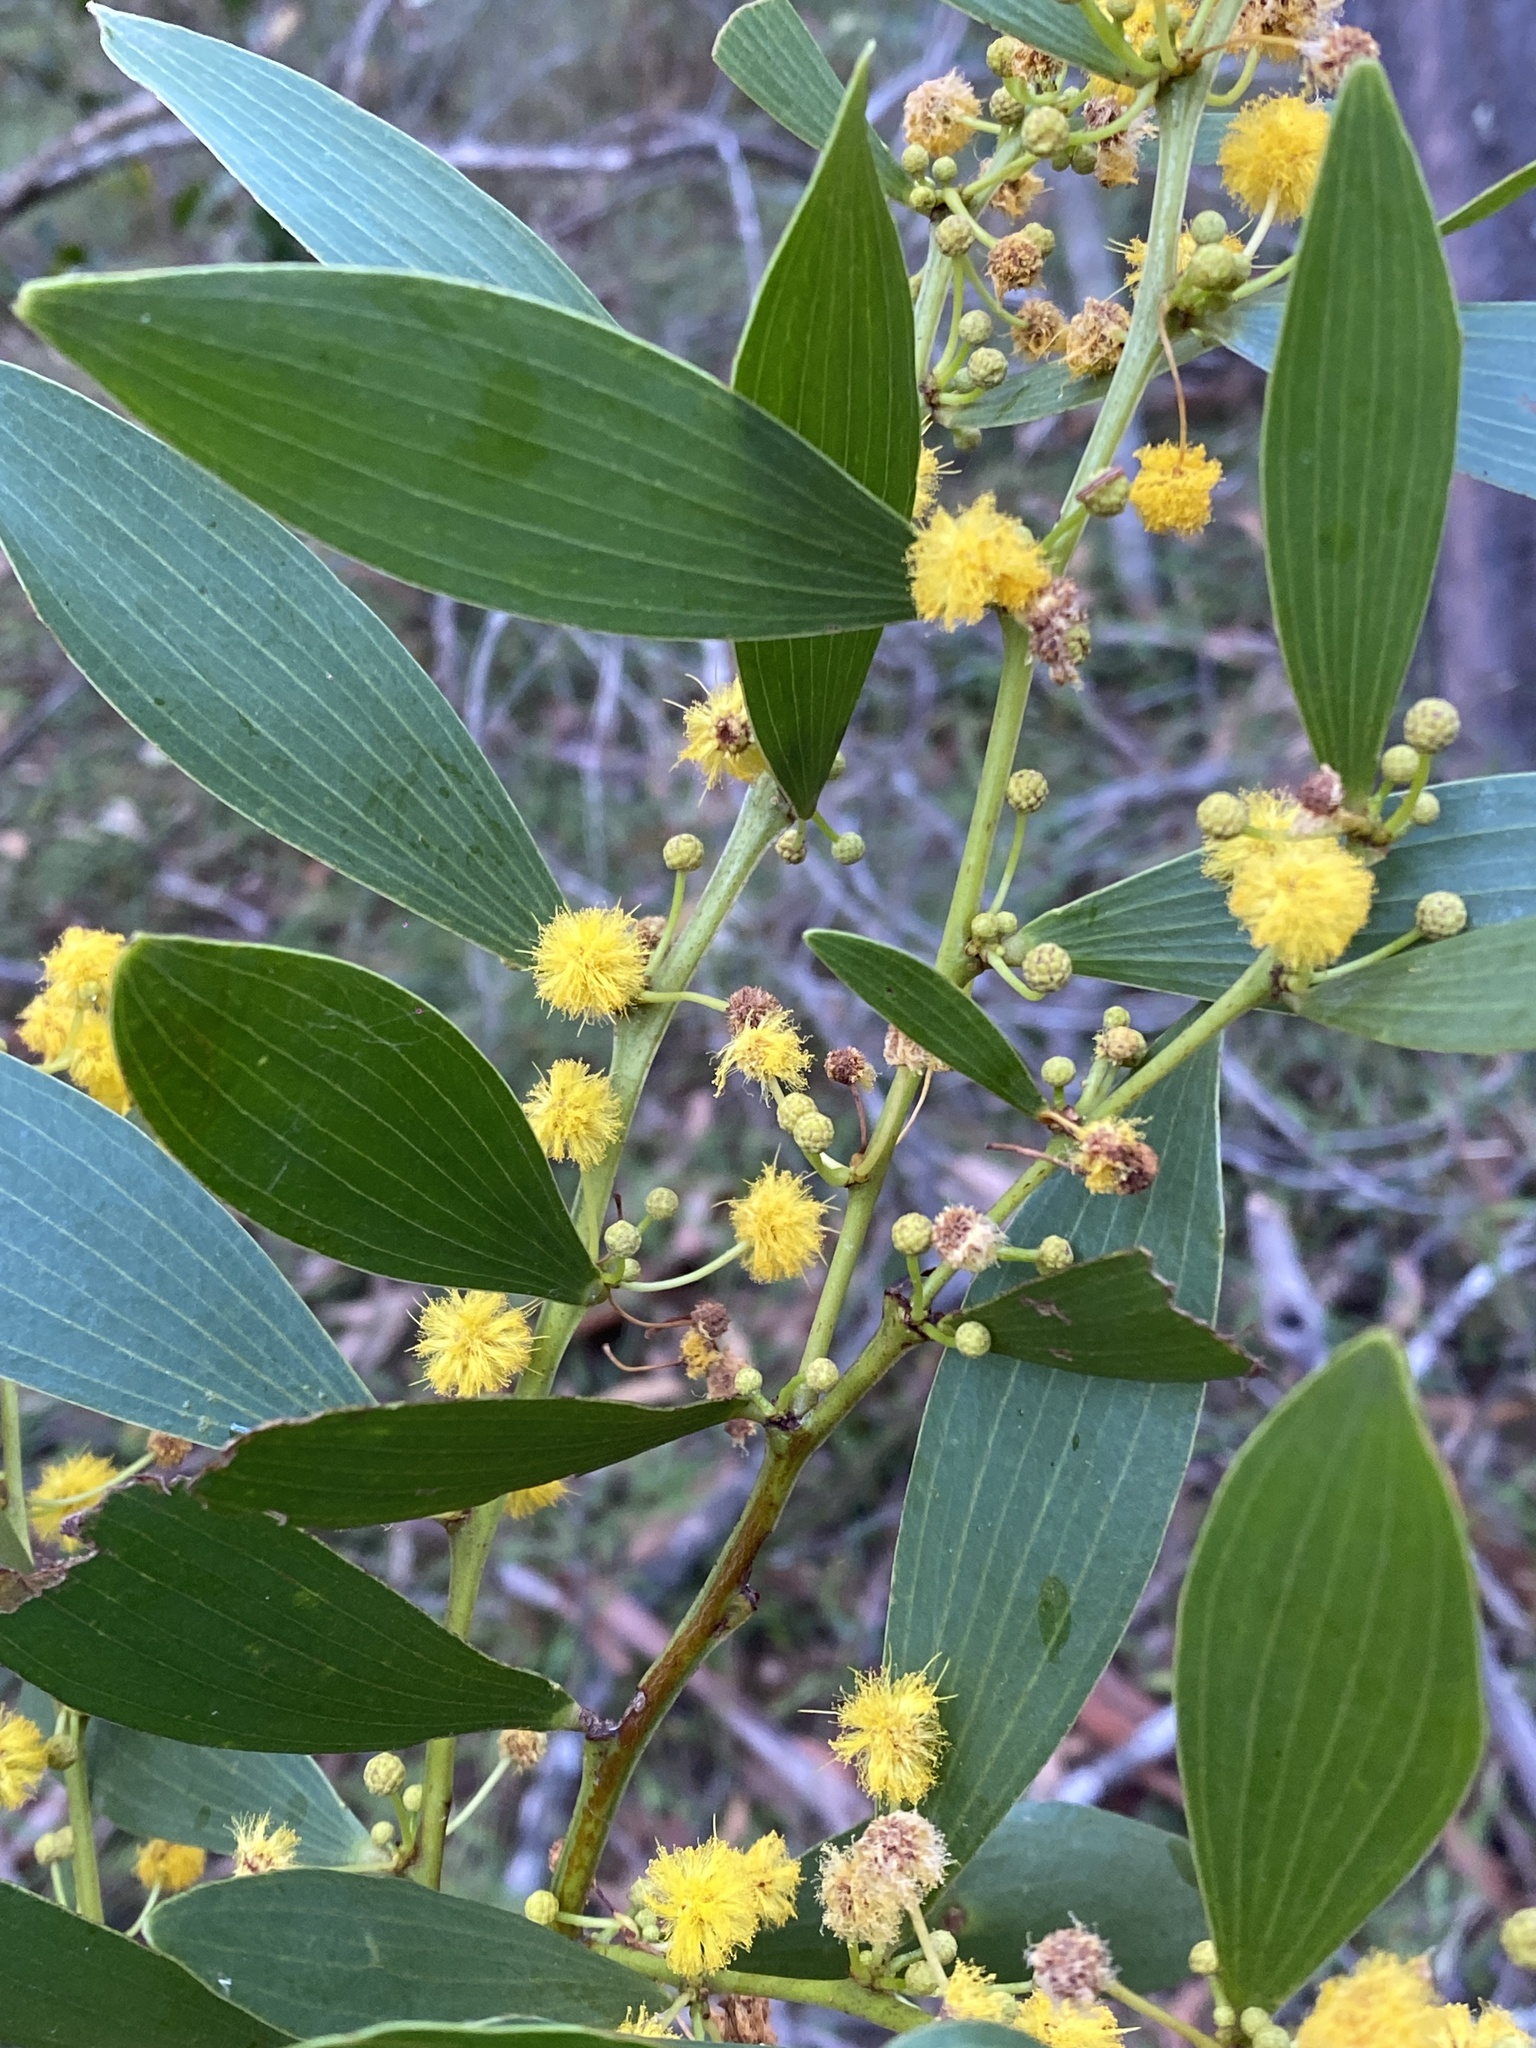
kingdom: Plantae
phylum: Tracheophyta
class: Magnoliopsida
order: Fabales
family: Fabaceae
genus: Acacia
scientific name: Acacia complanata
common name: Flat-stemmed wattle
